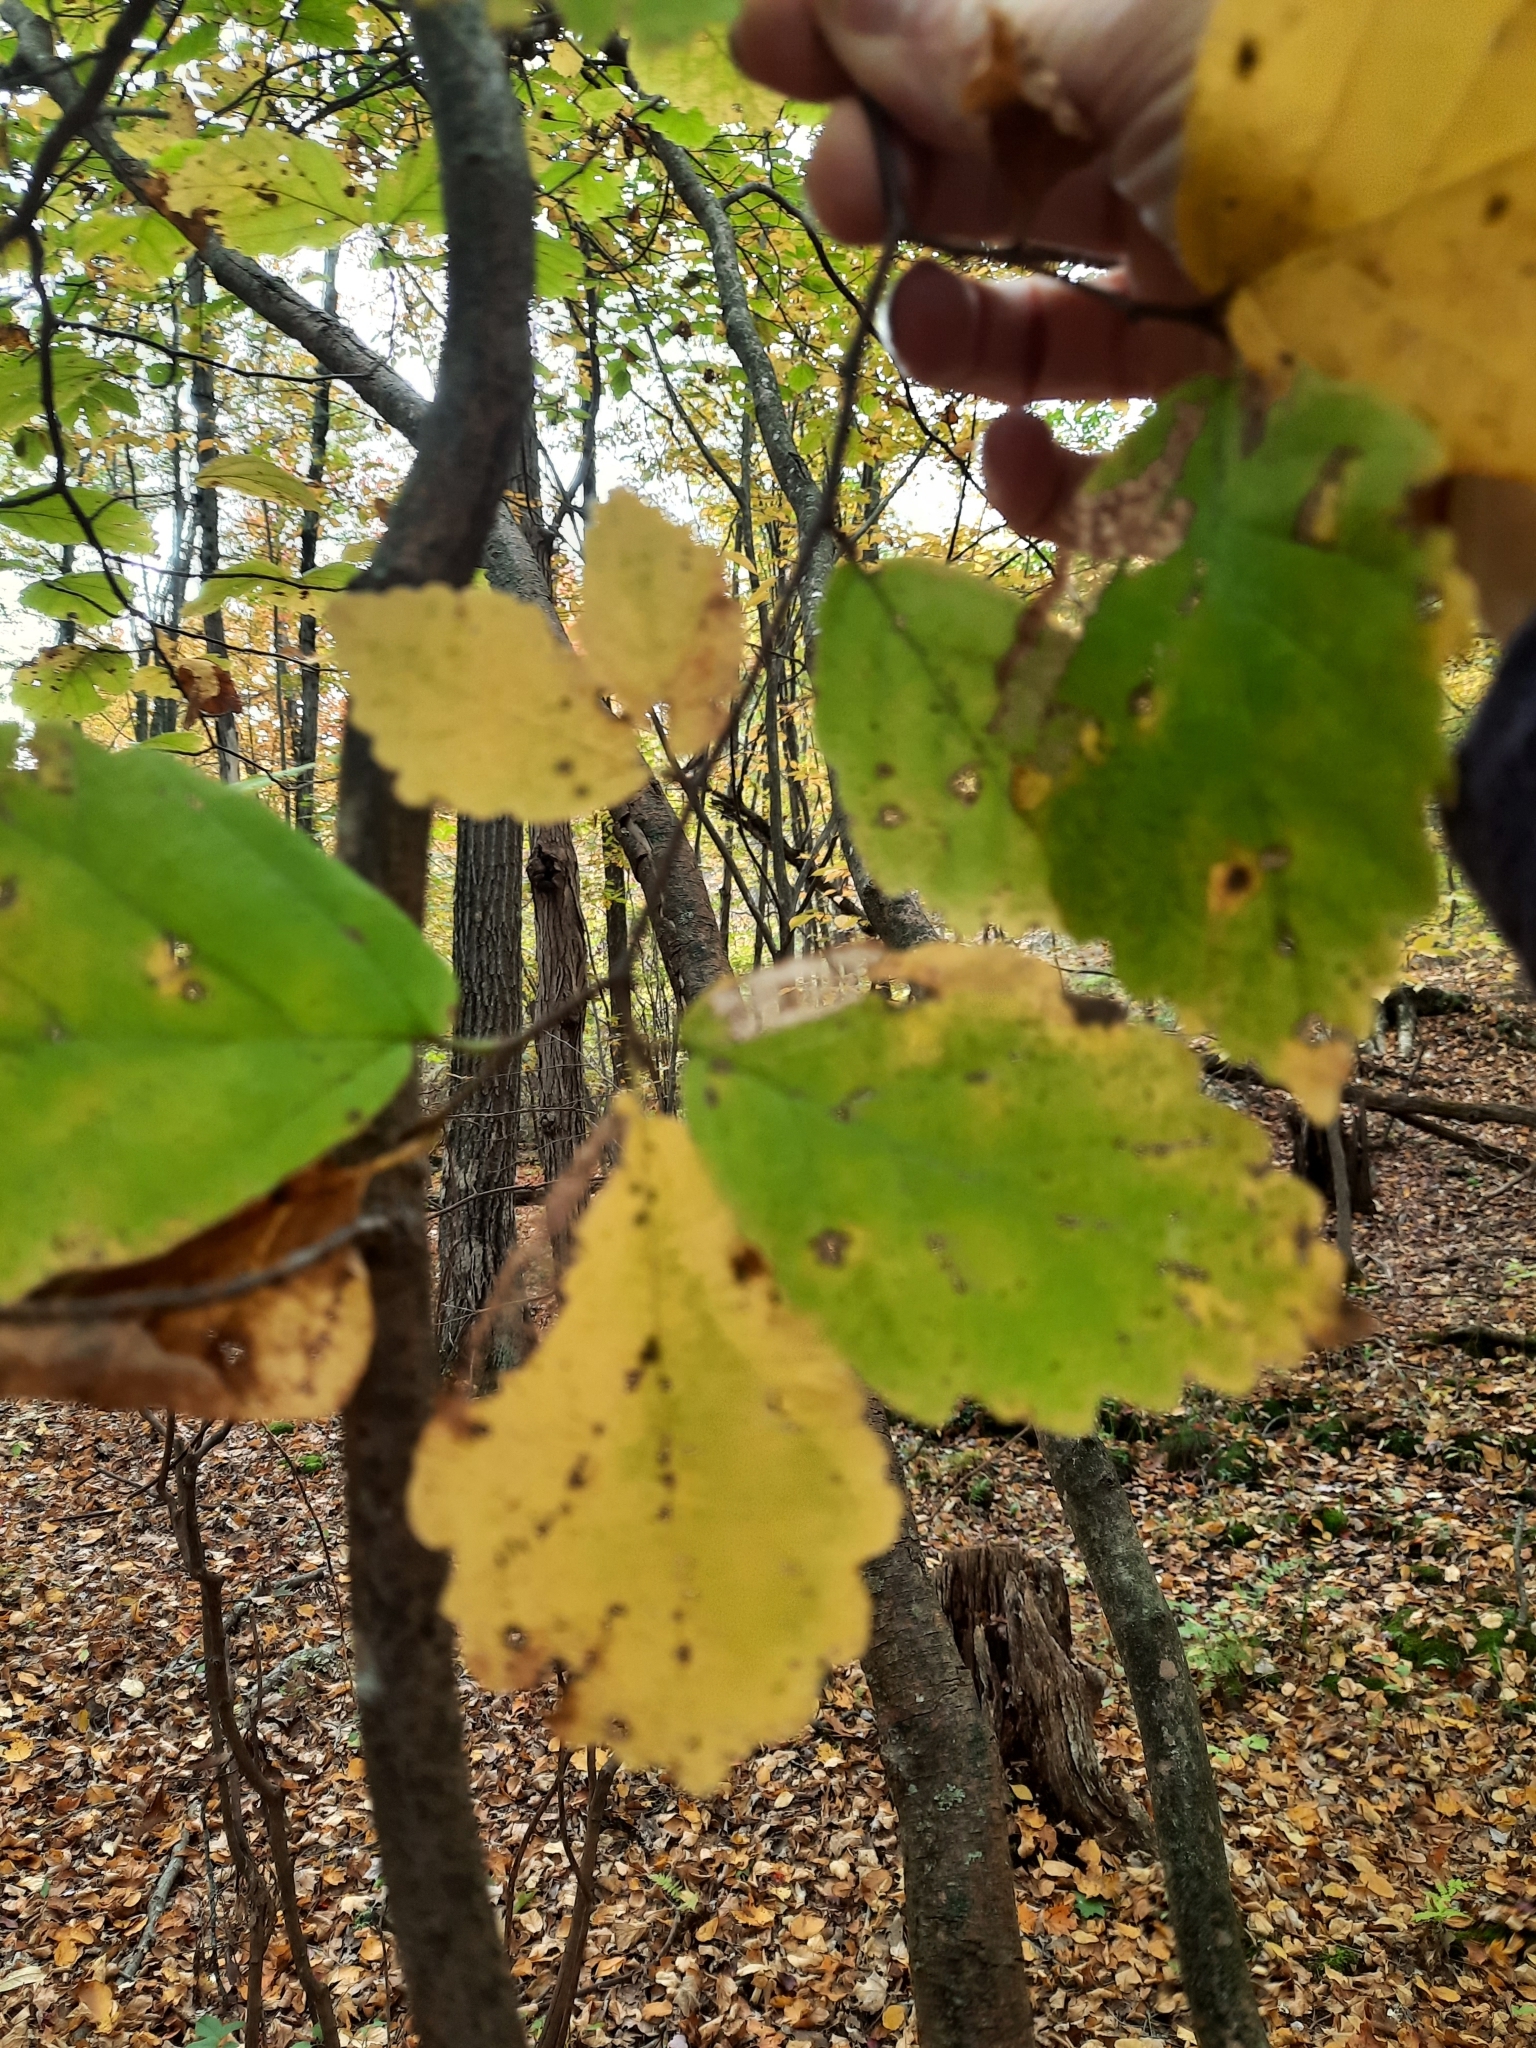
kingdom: Plantae
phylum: Tracheophyta
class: Magnoliopsida
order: Saxifragales
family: Hamamelidaceae
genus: Hamamelis
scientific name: Hamamelis virginiana
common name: Witch-hazel
